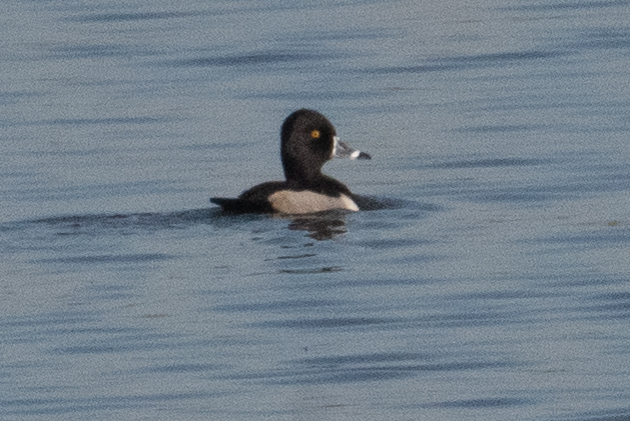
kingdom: Animalia
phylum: Chordata
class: Aves
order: Anseriformes
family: Anatidae
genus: Aythya
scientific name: Aythya collaris
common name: Ring-necked duck
